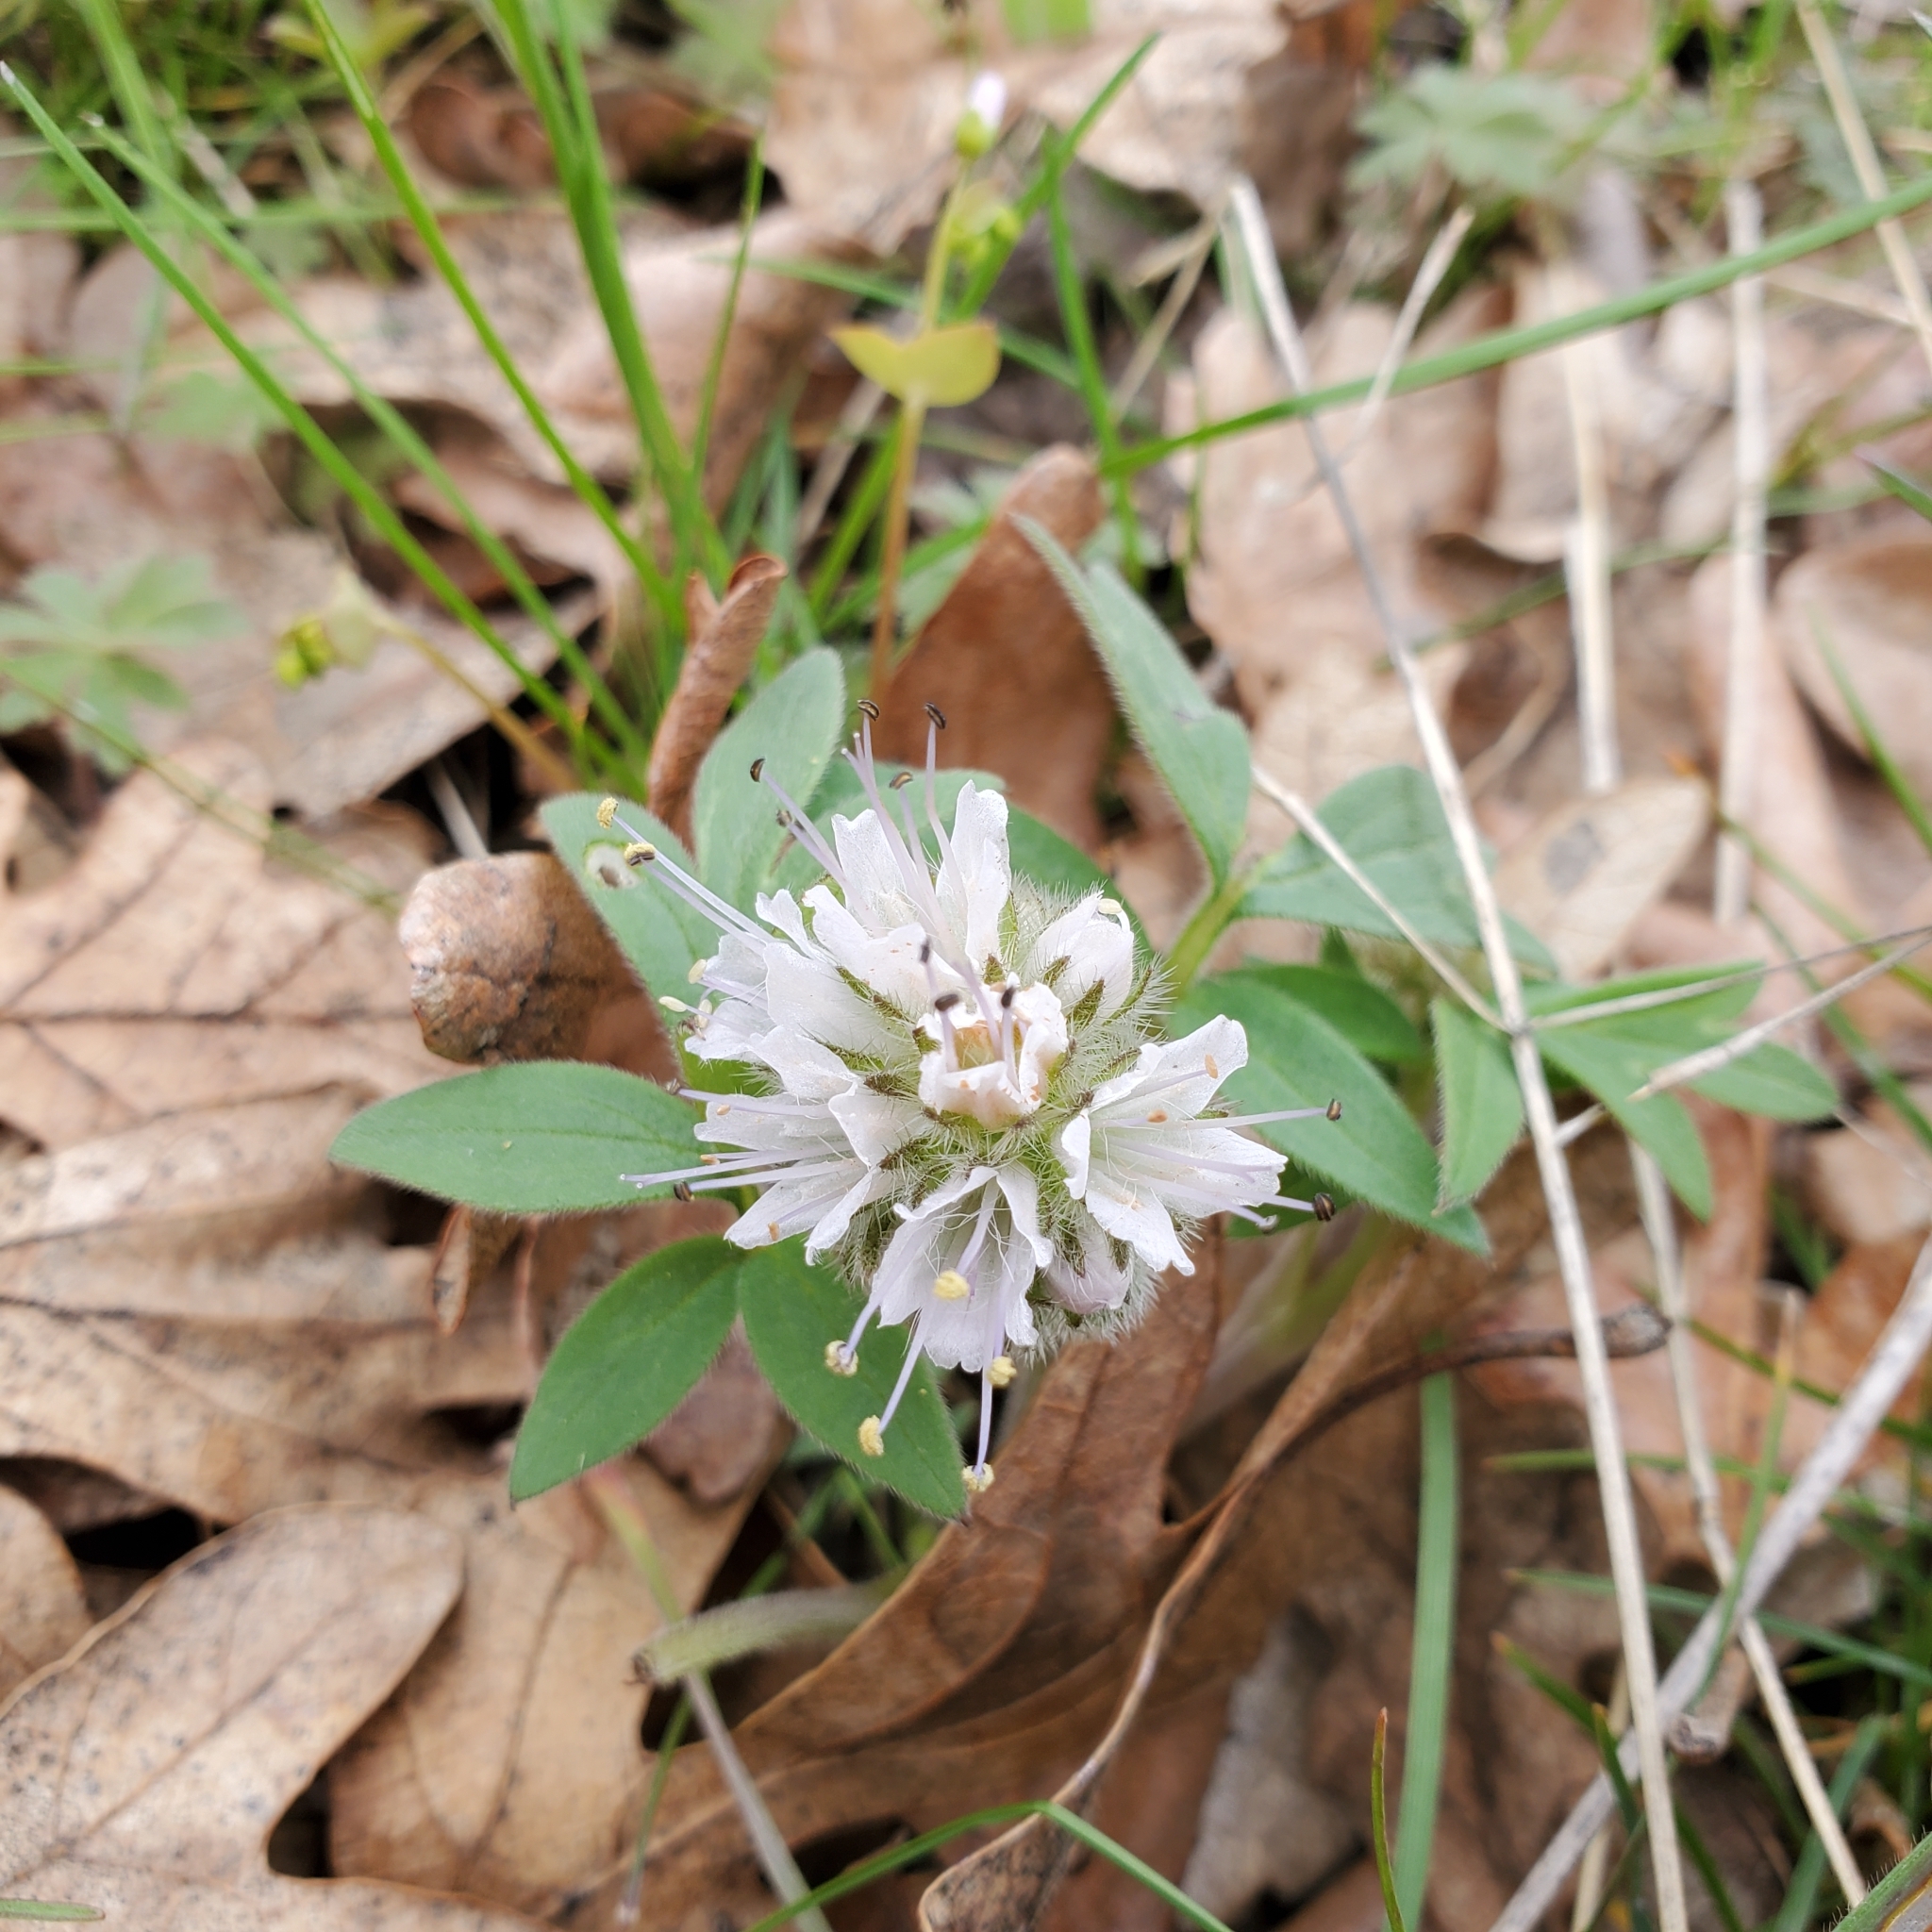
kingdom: Plantae
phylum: Tracheophyta
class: Magnoliopsida
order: Boraginales
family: Hydrophyllaceae
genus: Hydrophyllum
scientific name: Hydrophyllum capitatum
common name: Woollen-breeches
